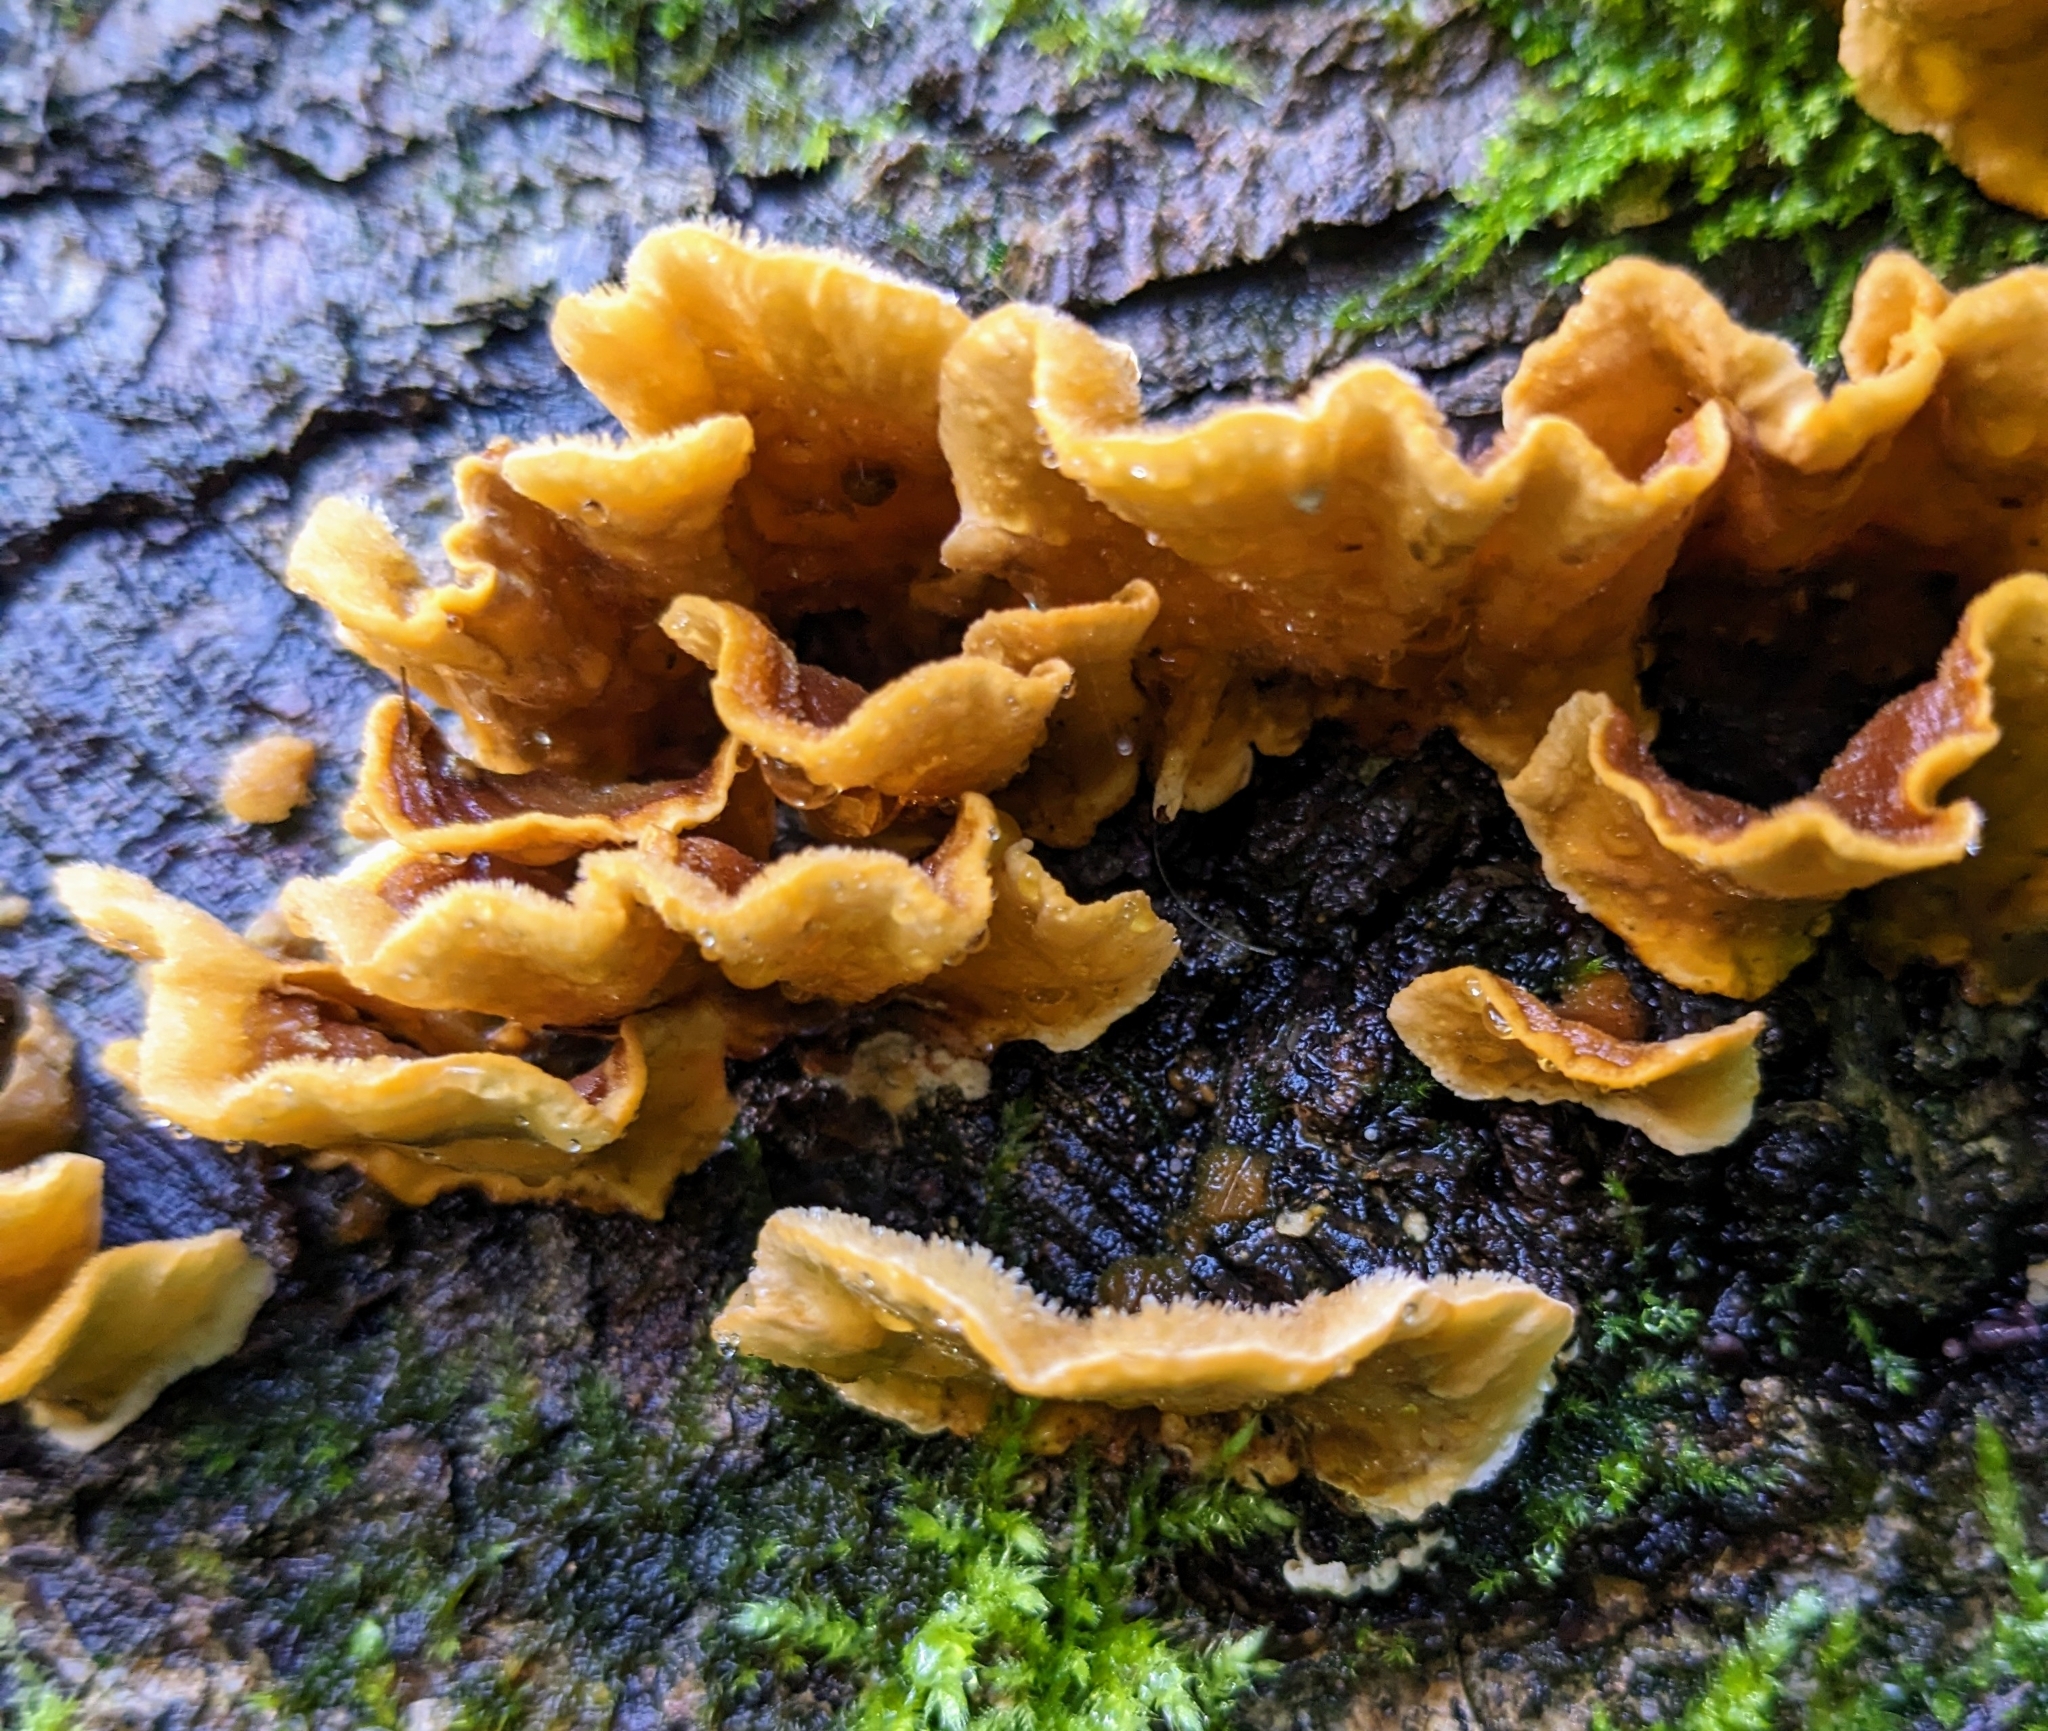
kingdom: Fungi
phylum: Basidiomycota
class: Agaricomycetes
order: Russulales
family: Stereaceae
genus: Stereum
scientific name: Stereum hirsutum
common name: Hairy curtain crust
